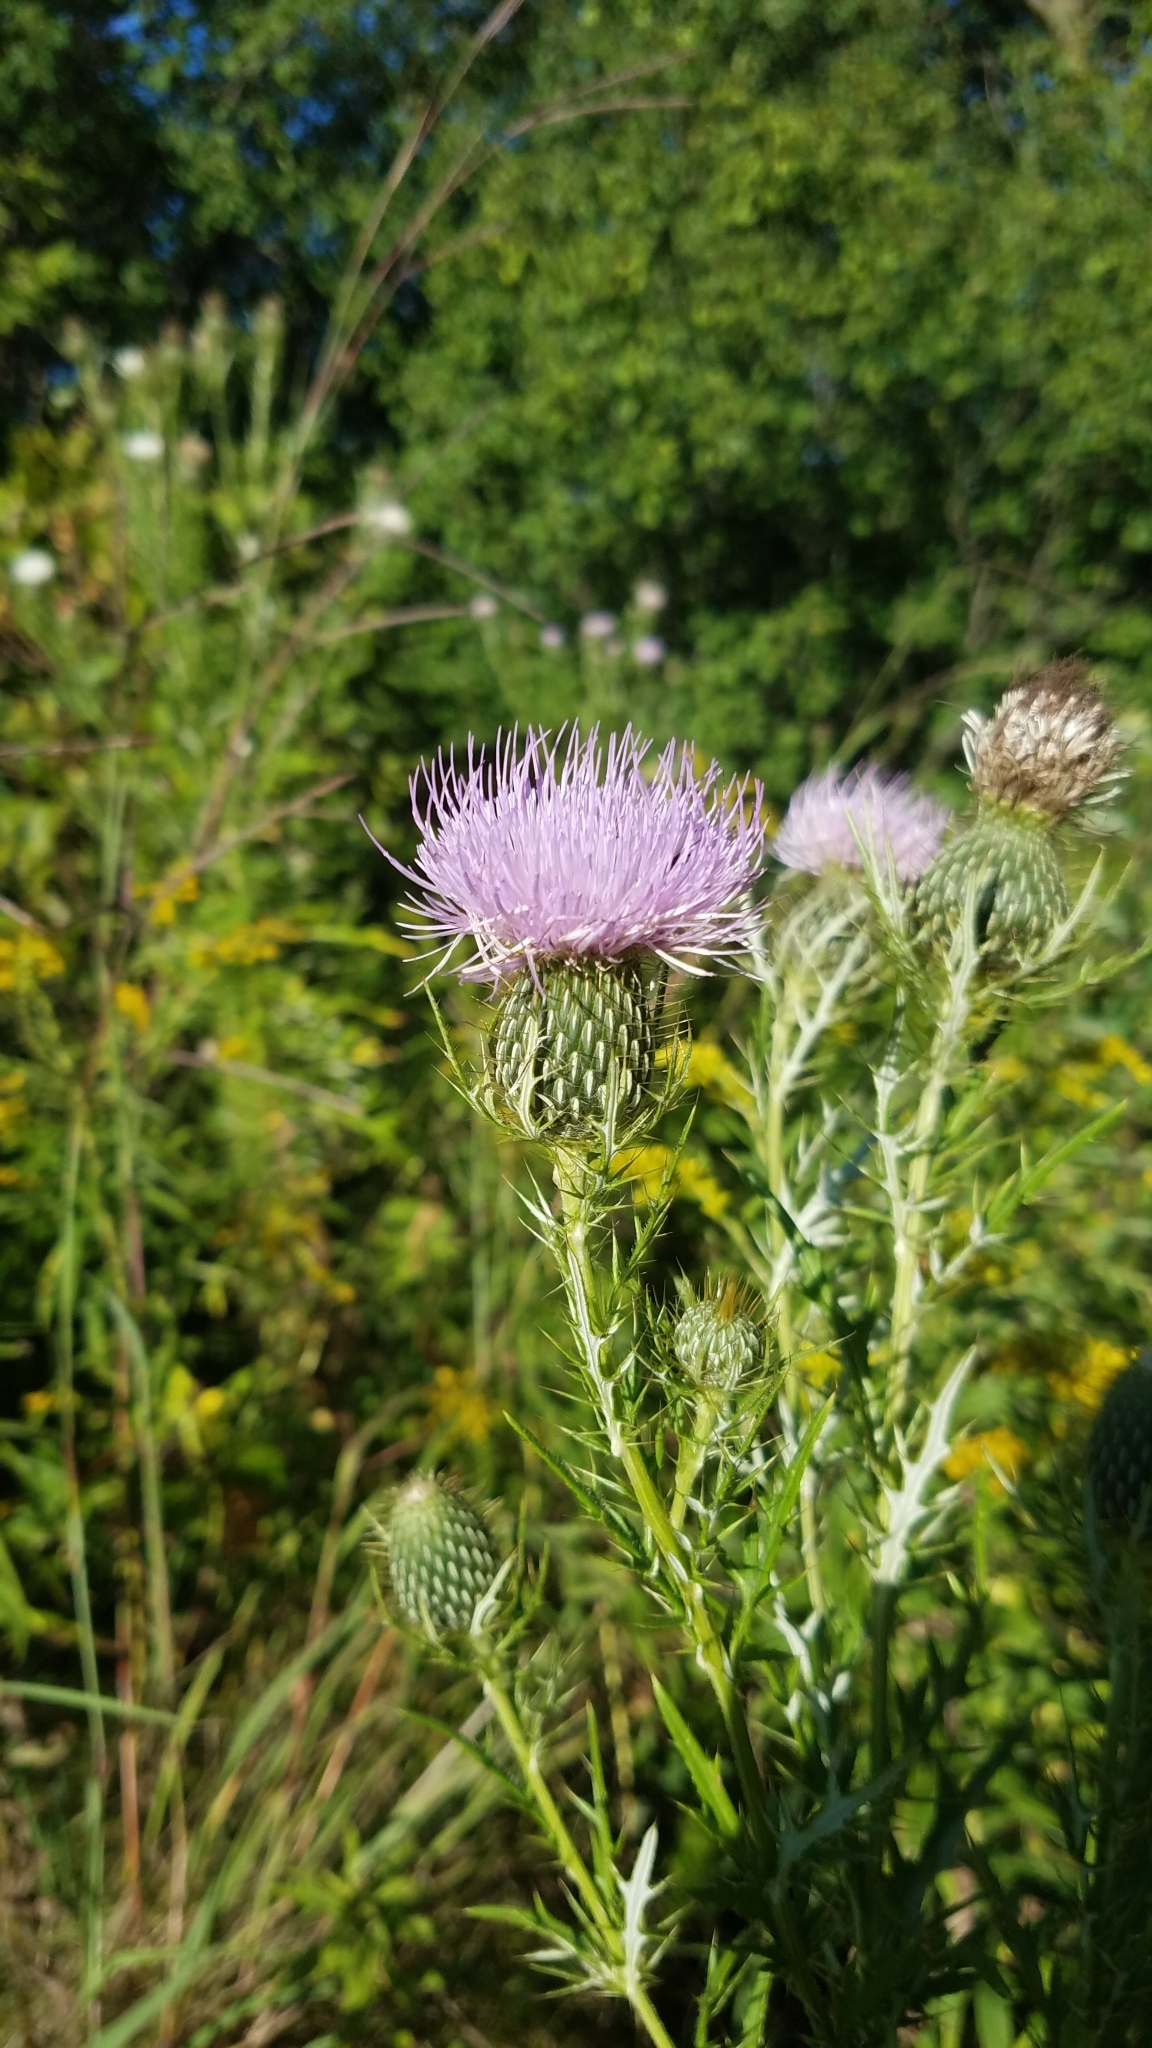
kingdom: Plantae
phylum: Tracheophyta
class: Magnoliopsida
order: Asterales
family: Asteraceae
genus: Cirsium
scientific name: Cirsium discolor
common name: Field thistle
